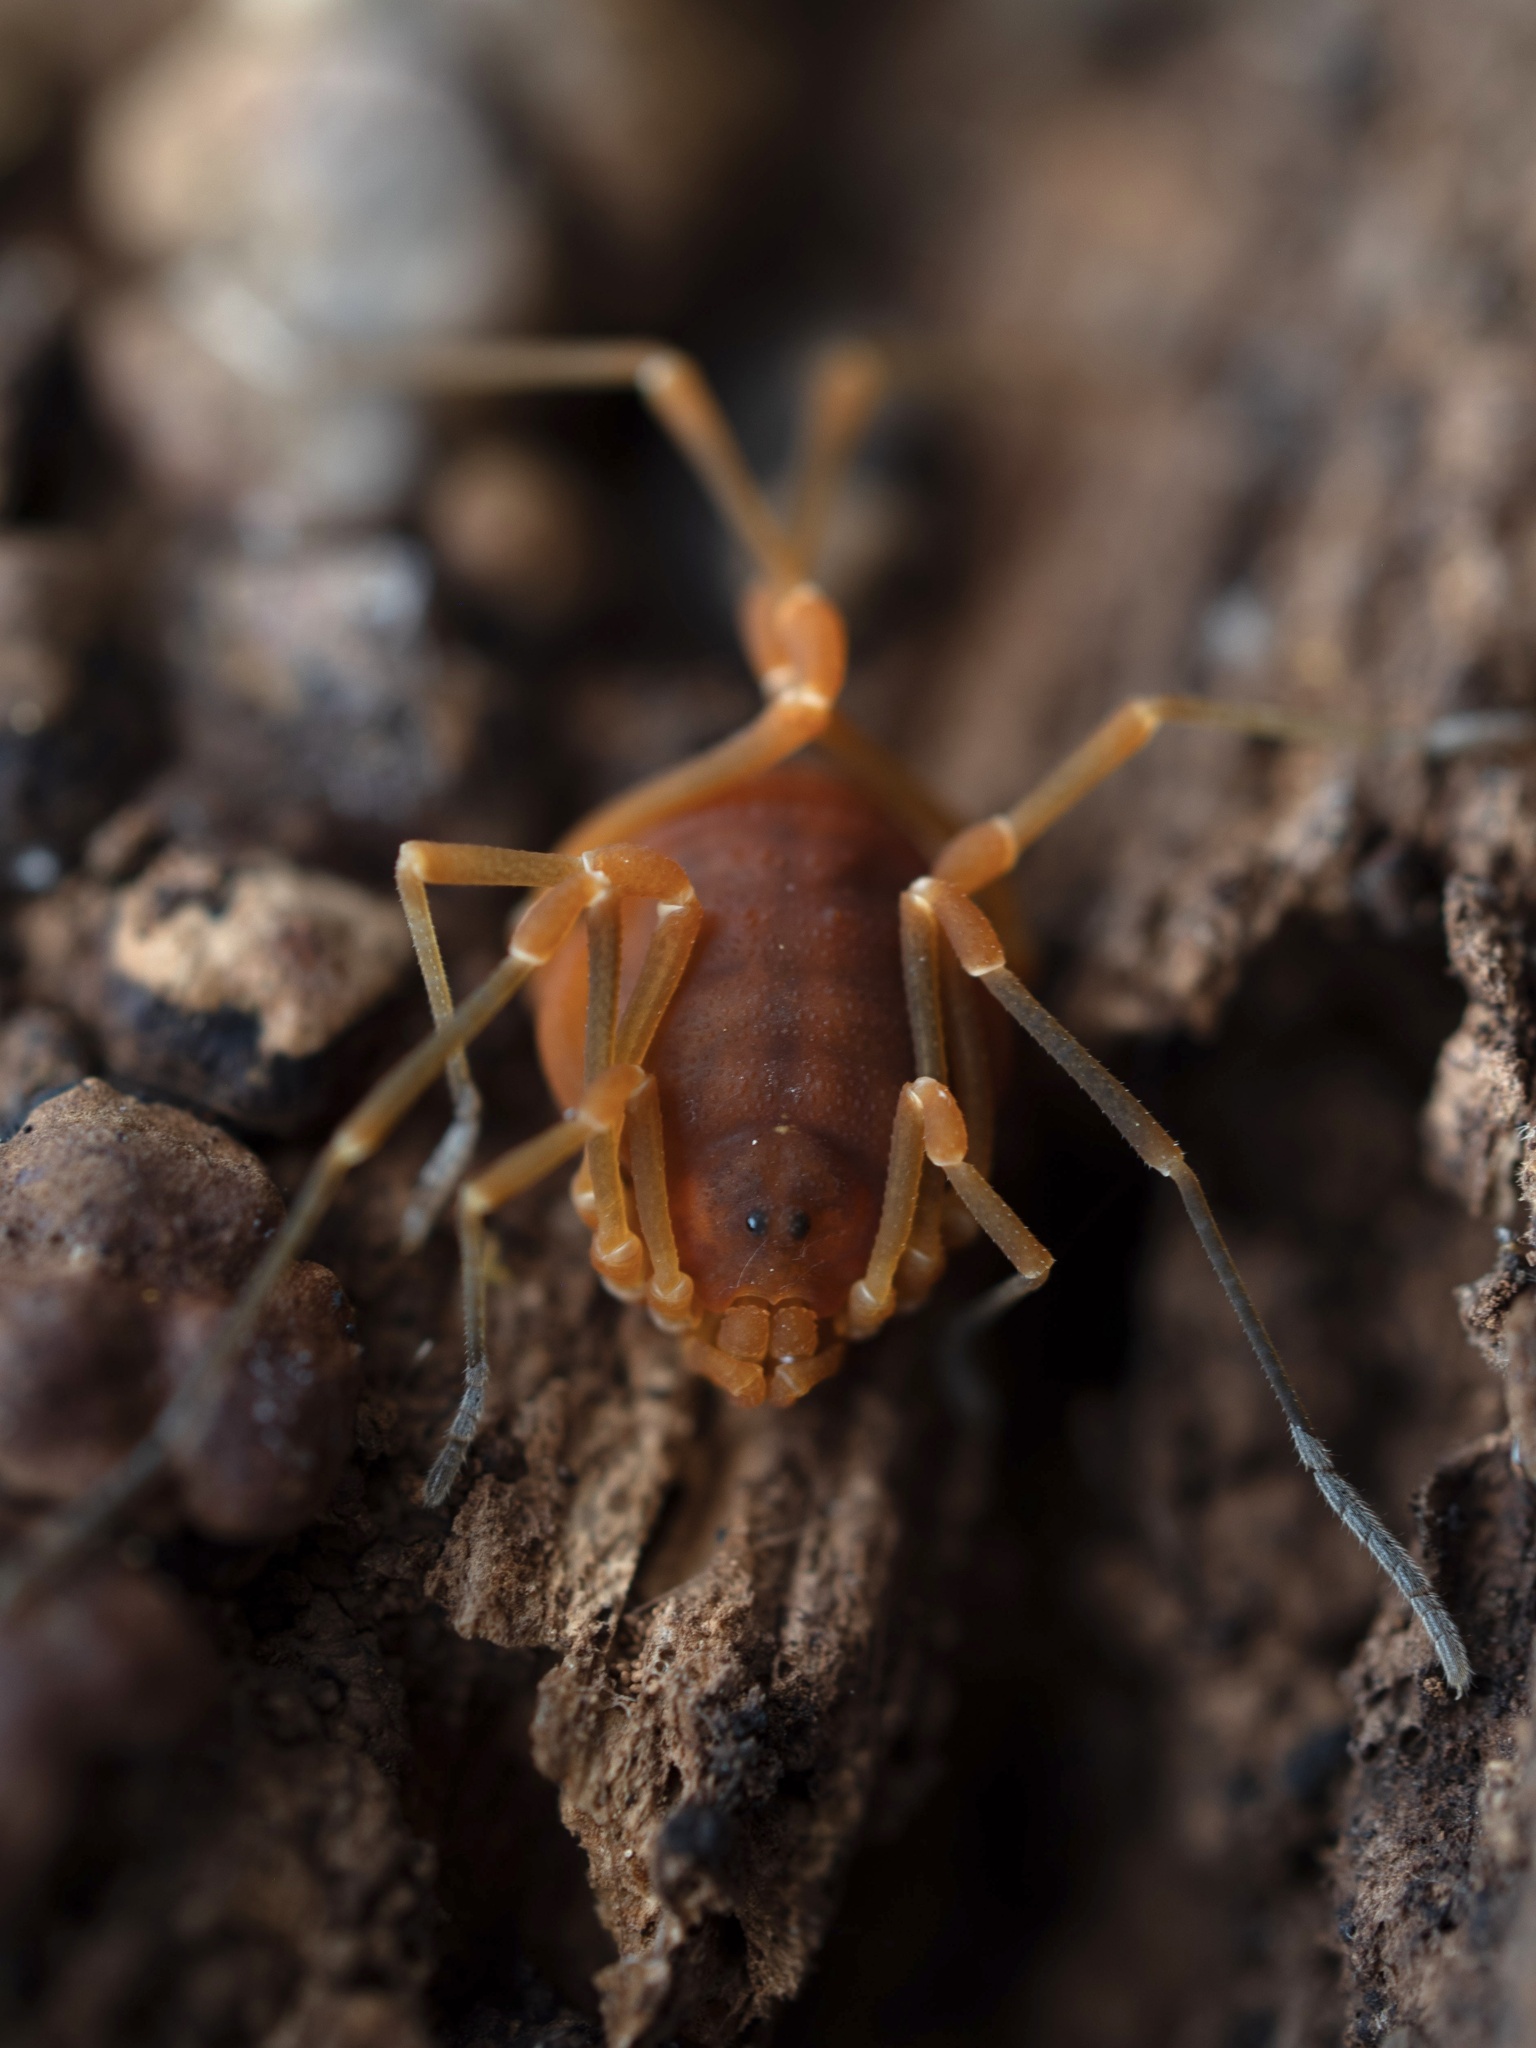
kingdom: Animalia
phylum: Arthropoda
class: Arachnida
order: Opiliones
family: Cosmetidae
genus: Libitioides
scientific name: Libitioides sayi
